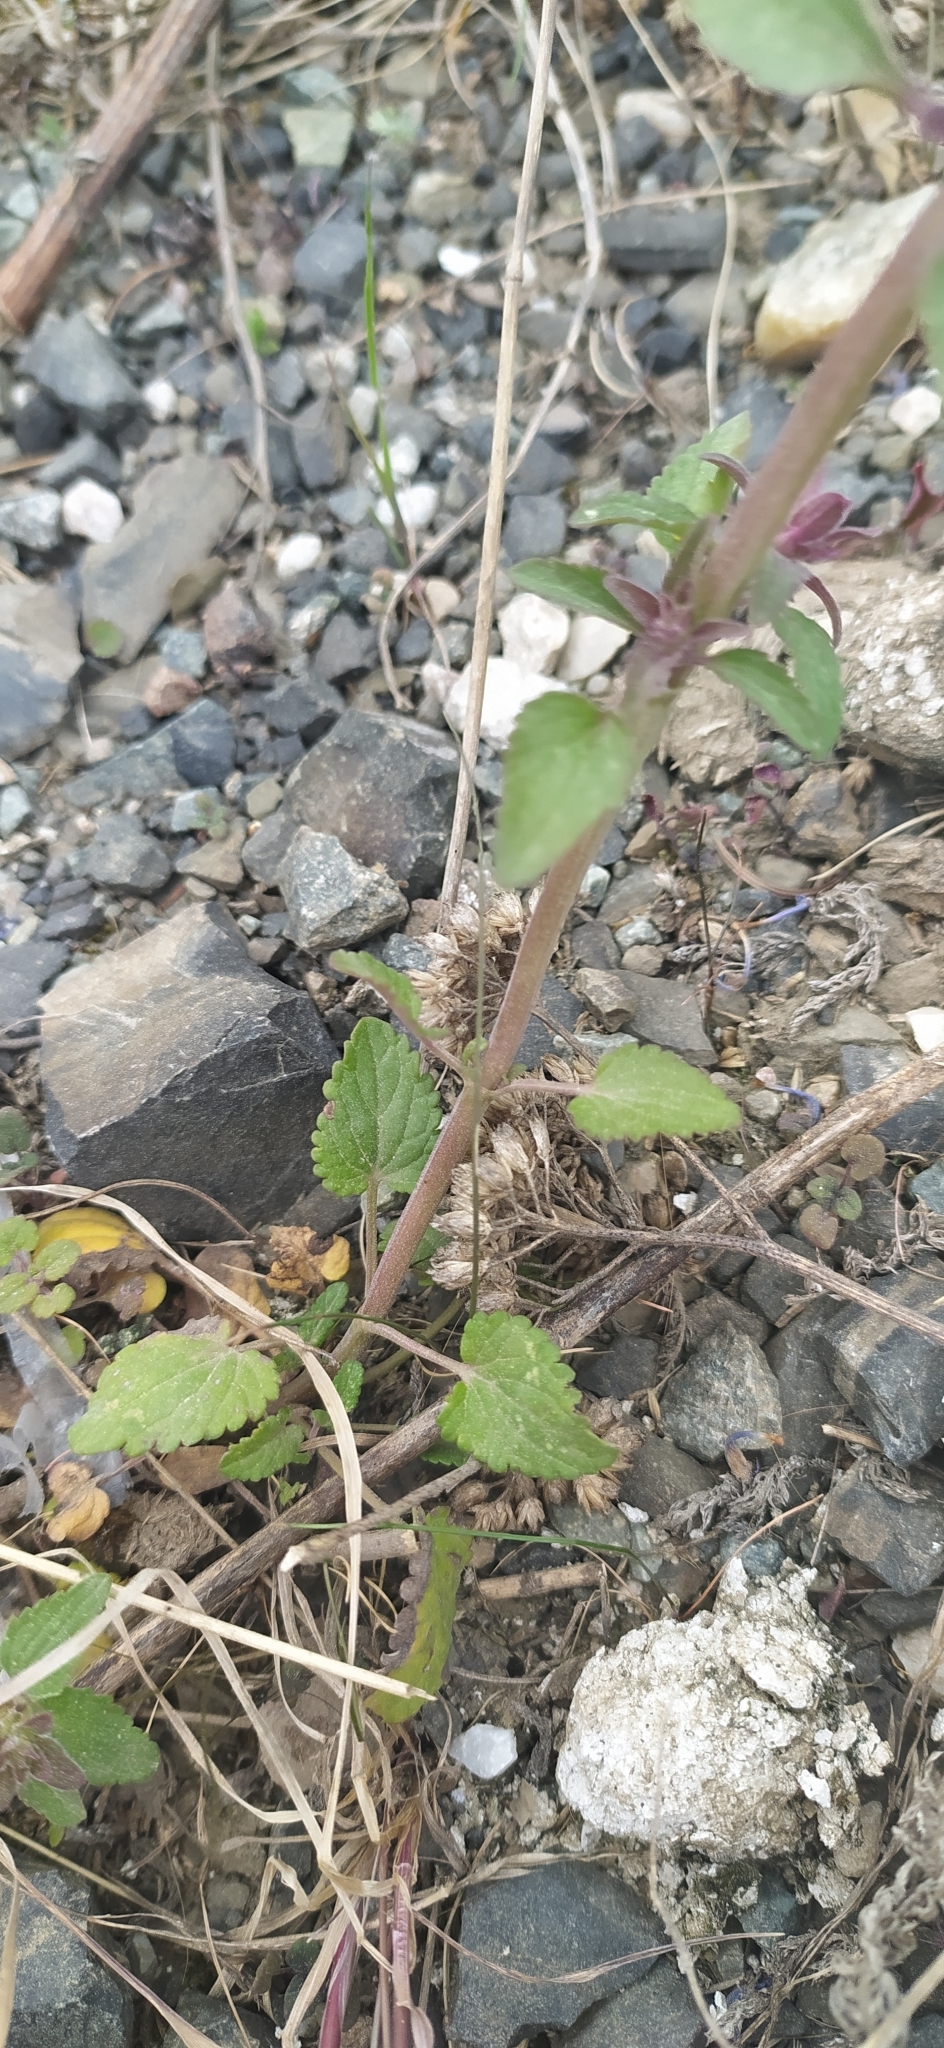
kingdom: Plantae
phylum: Tracheophyta
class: Magnoliopsida
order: Lamiales
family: Lamiaceae
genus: Dracocephalum
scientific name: Dracocephalum nutans
